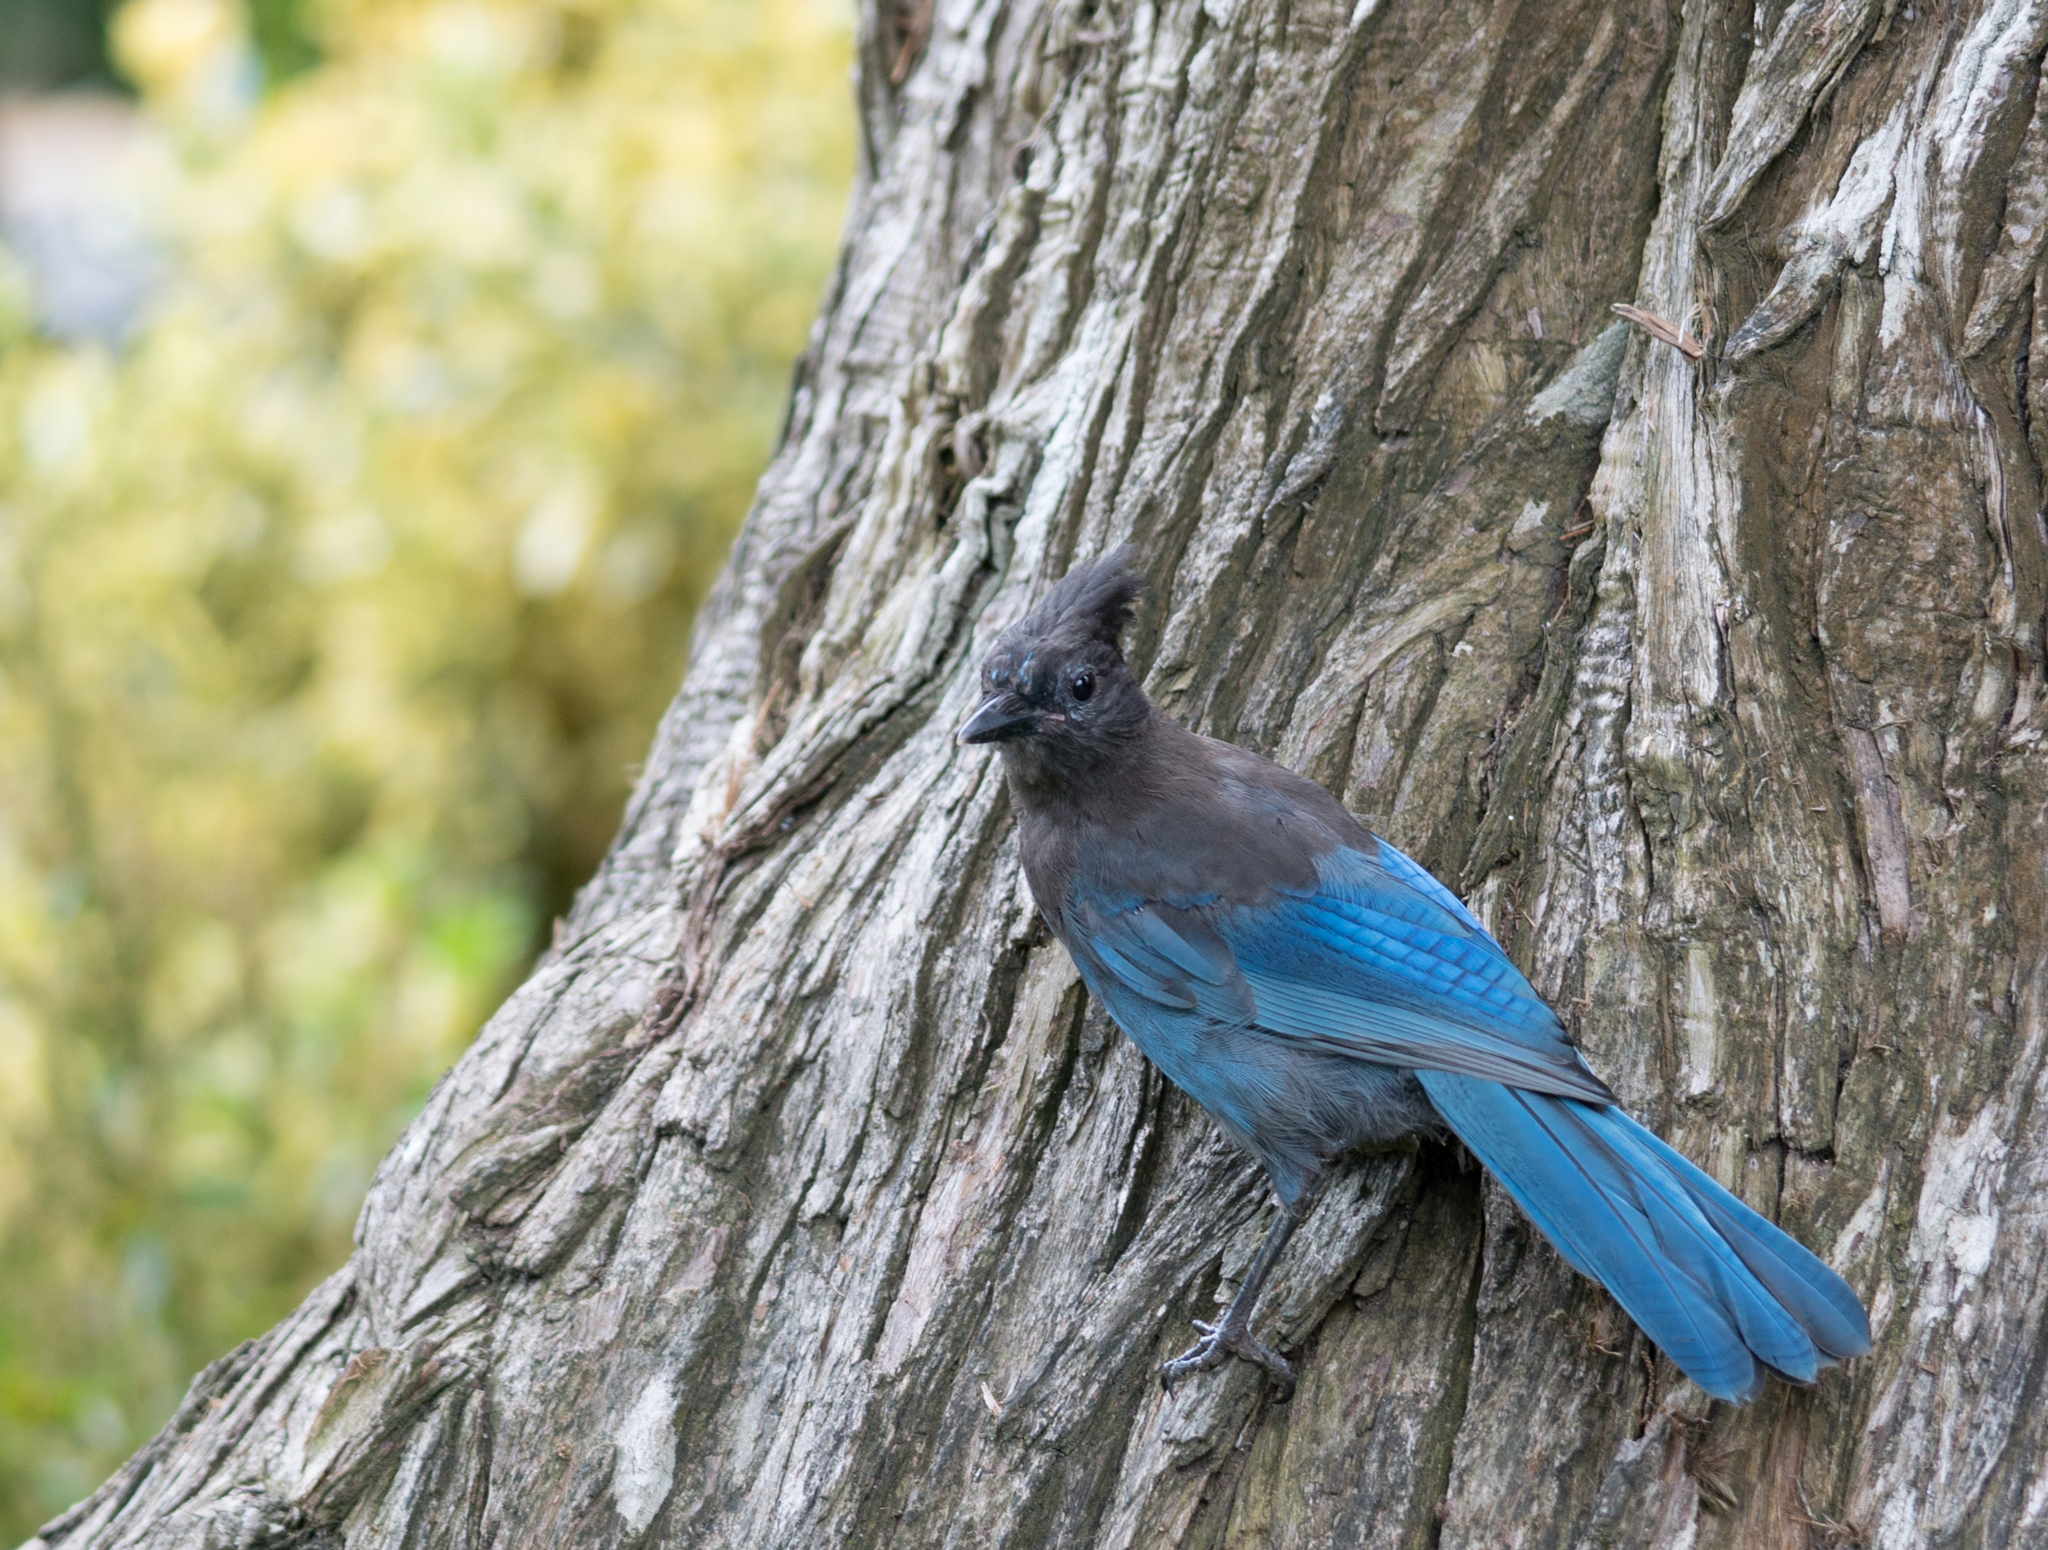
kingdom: Animalia
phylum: Chordata
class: Aves
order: Passeriformes
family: Corvidae
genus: Cyanocitta
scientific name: Cyanocitta stelleri
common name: Steller's jay
